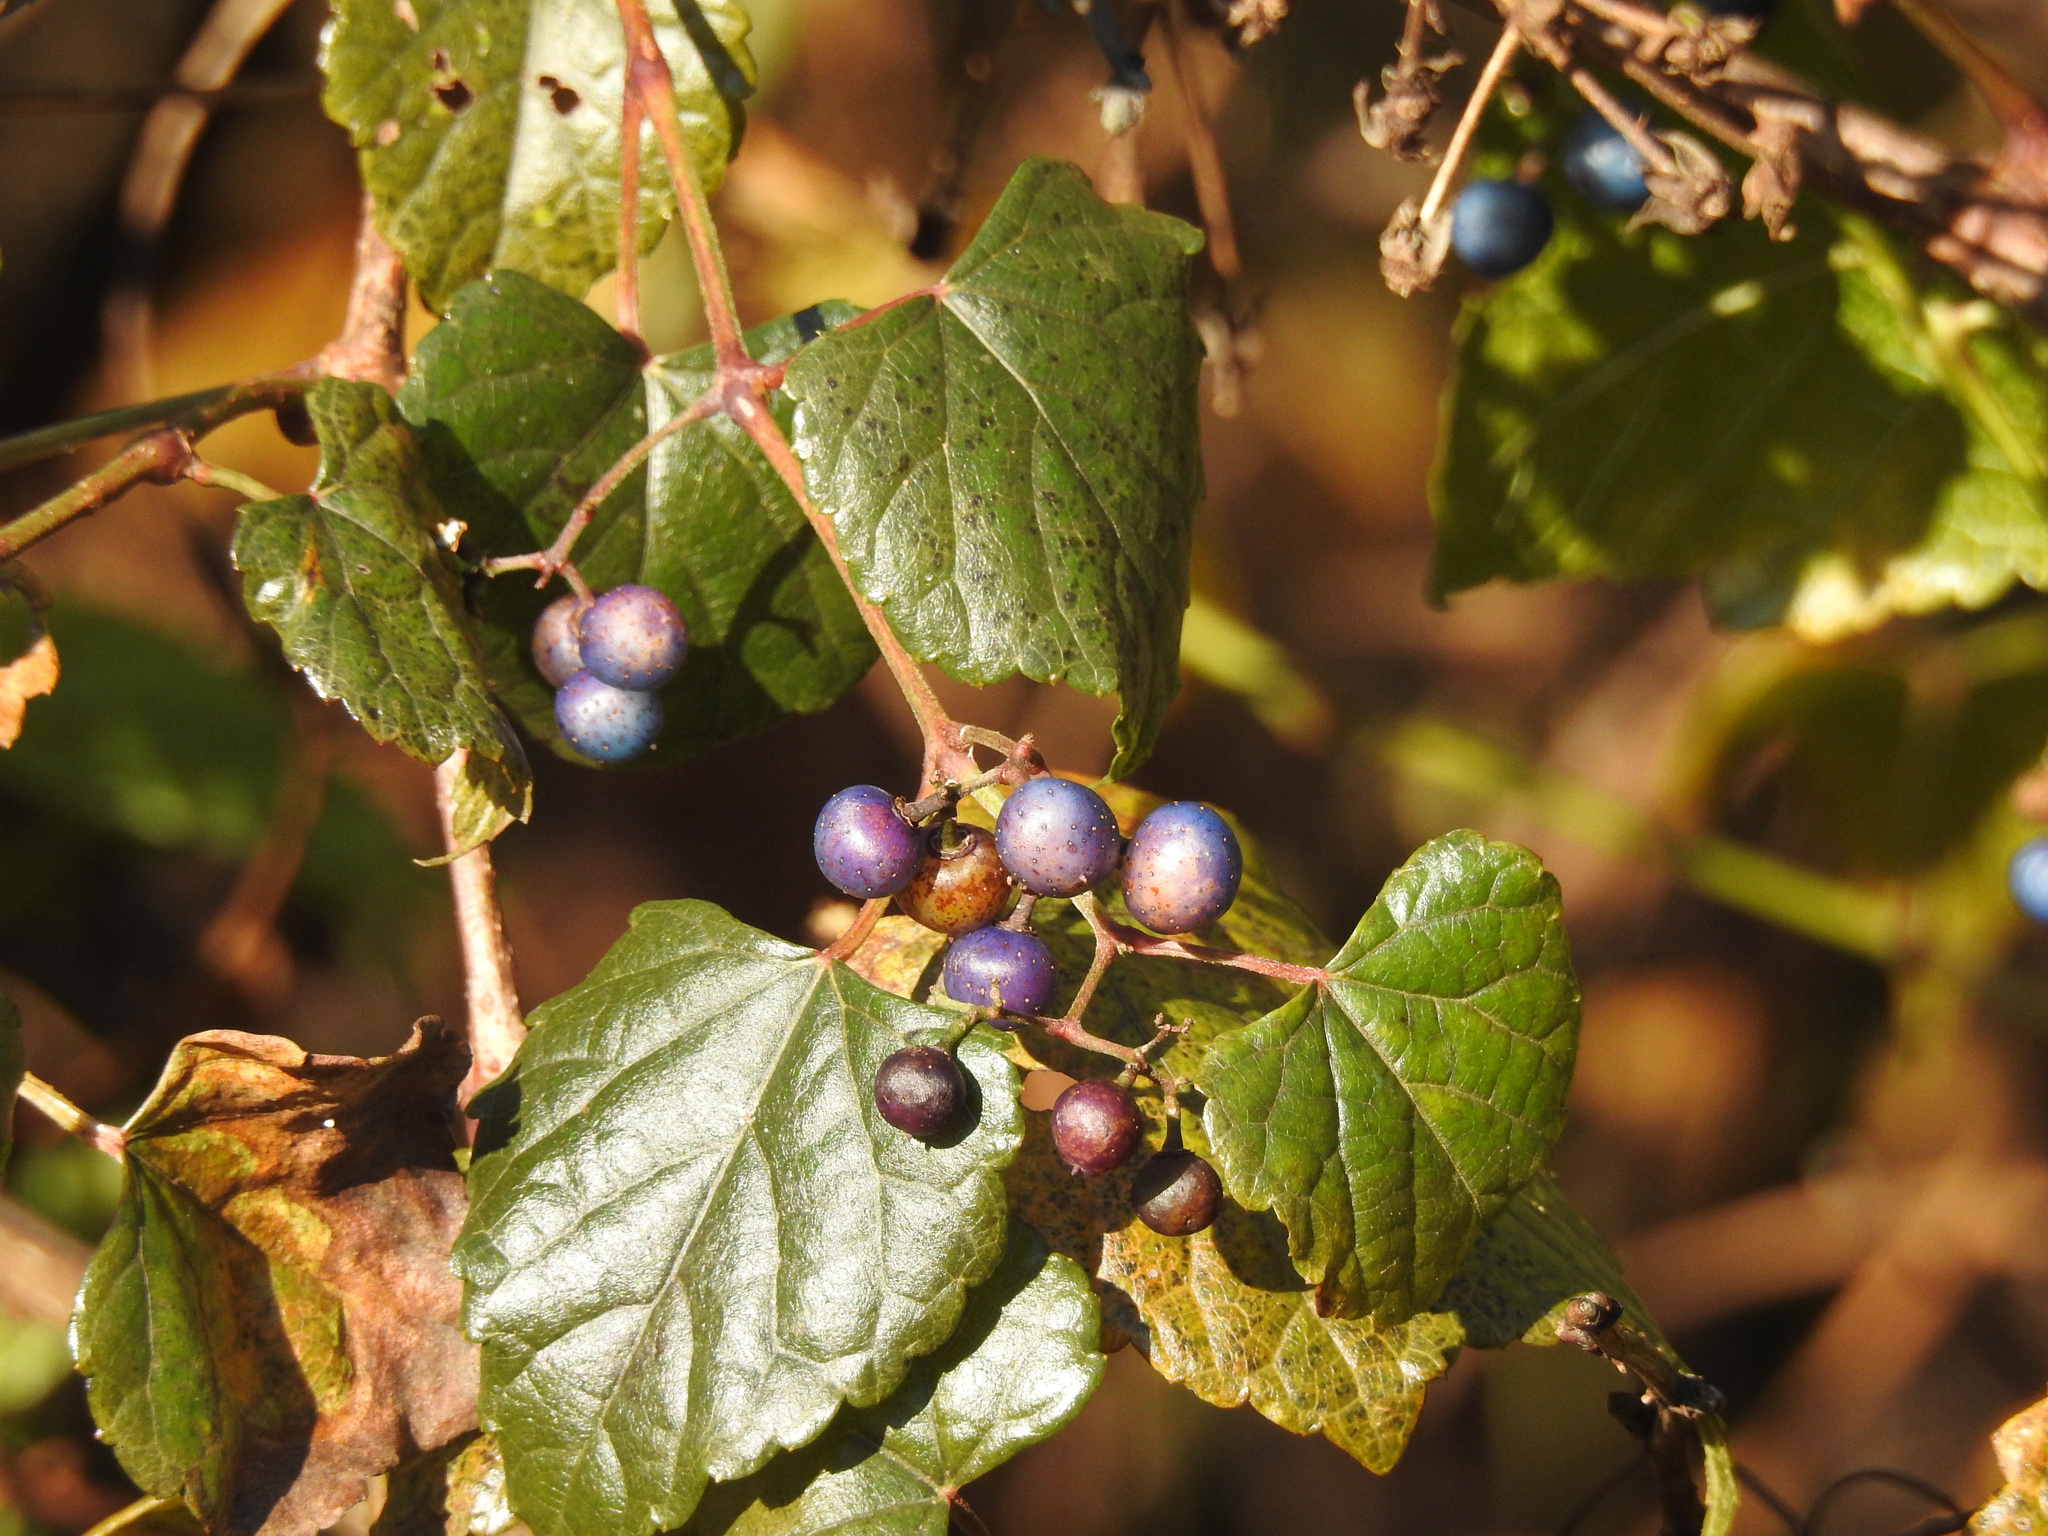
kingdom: Plantae
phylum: Tracheophyta
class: Magnoliopsida
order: Vitales
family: Vitaceae
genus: Ampelopsis
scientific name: Ampelopsis glandulosa
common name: Amur peppervine
